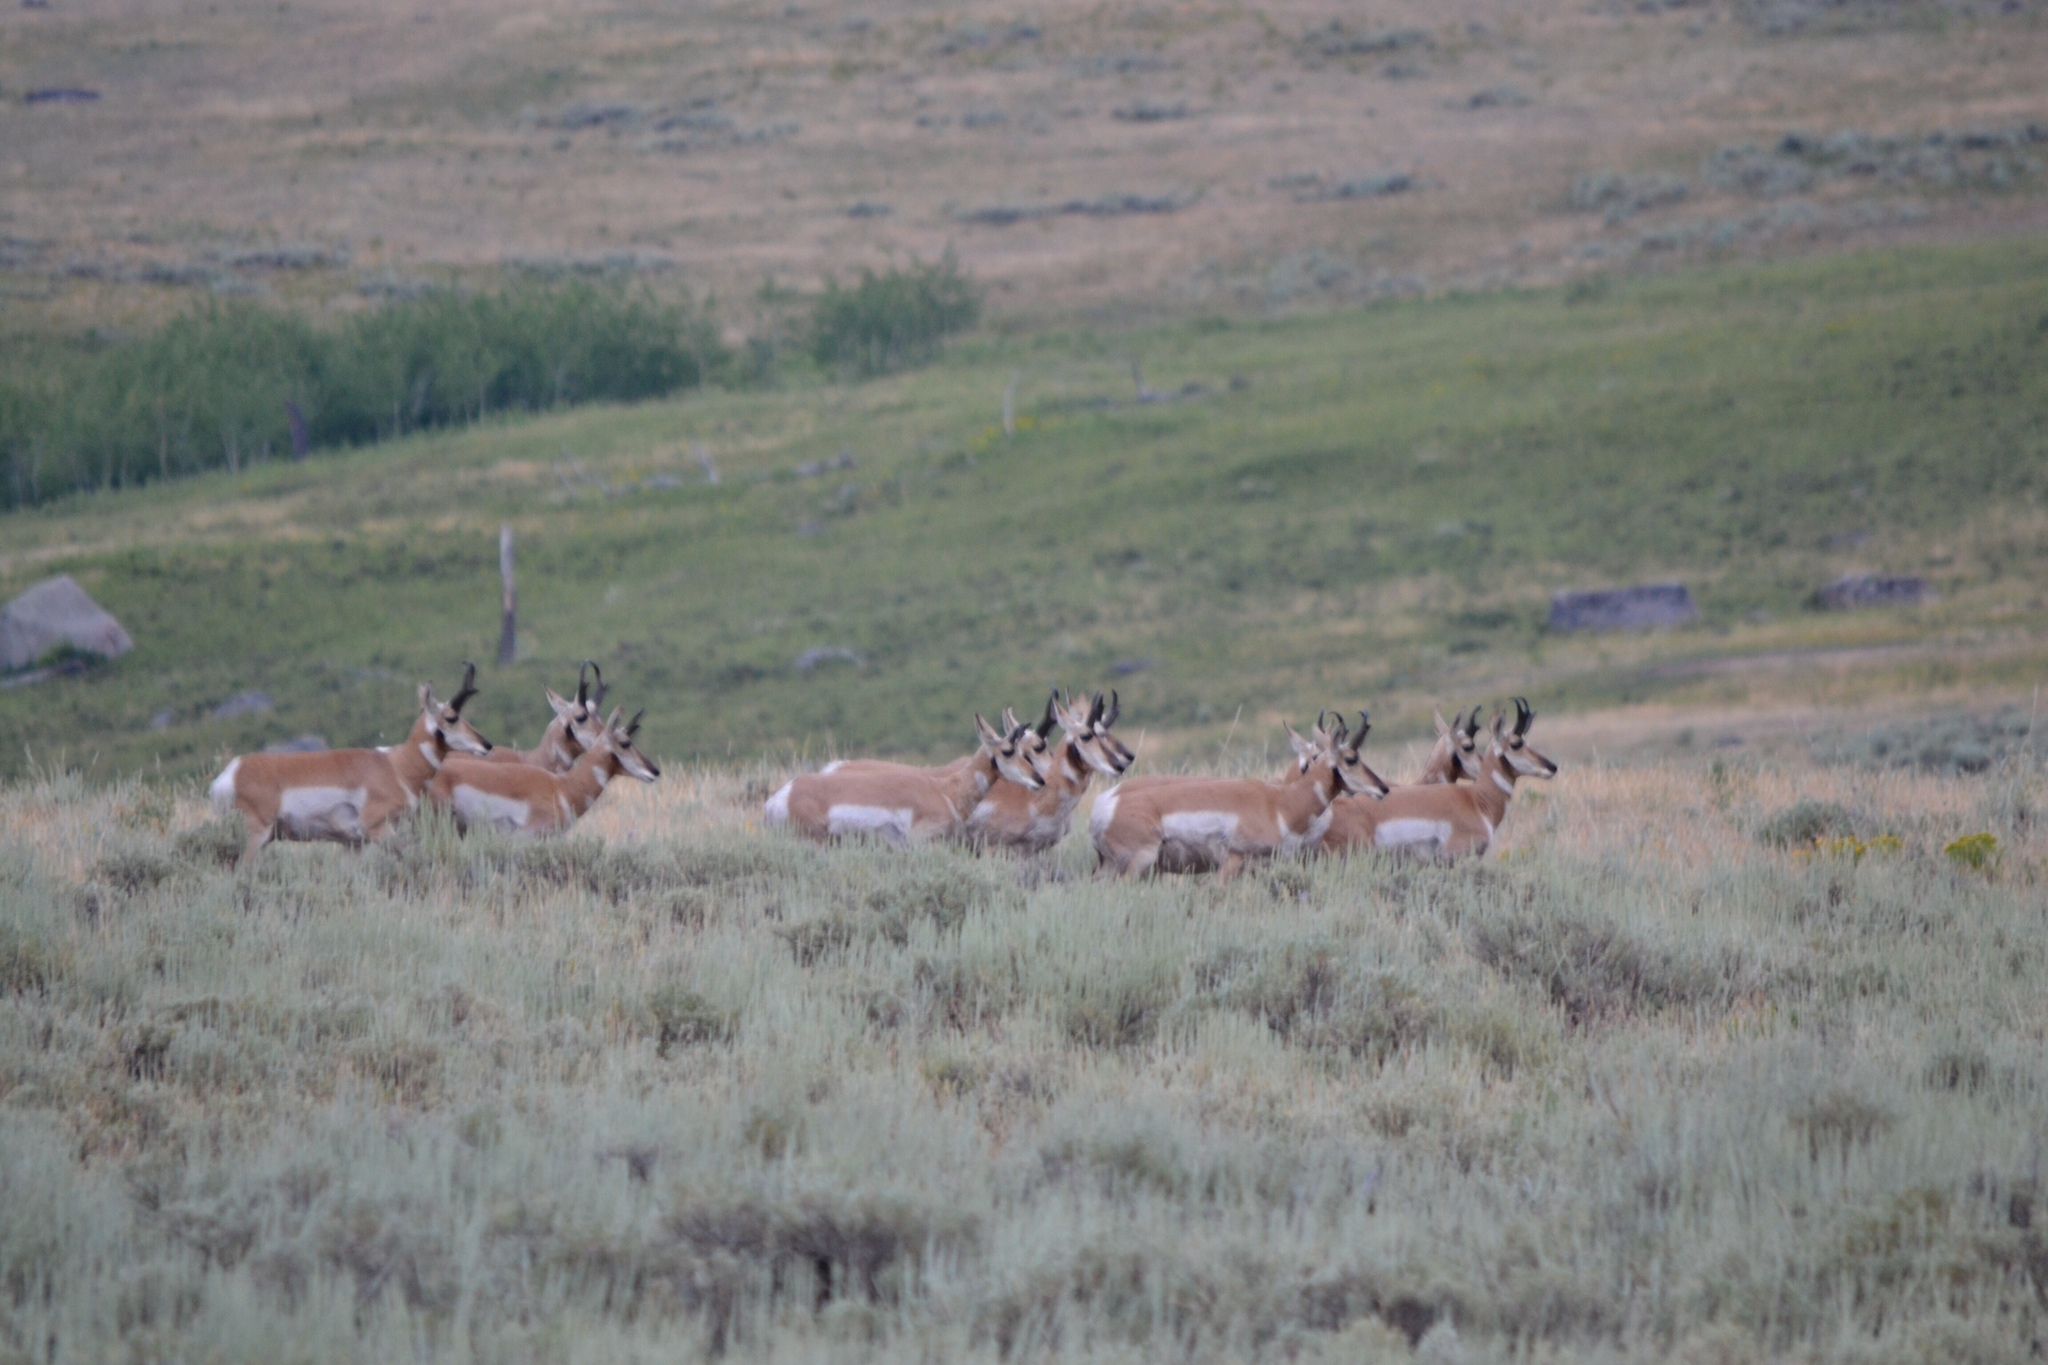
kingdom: Animalia
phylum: Chordata
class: Mammalia
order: Artiodactyla
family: Antilocapridae
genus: Antilocapra
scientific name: Antilocapra americana
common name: Pronghorn
